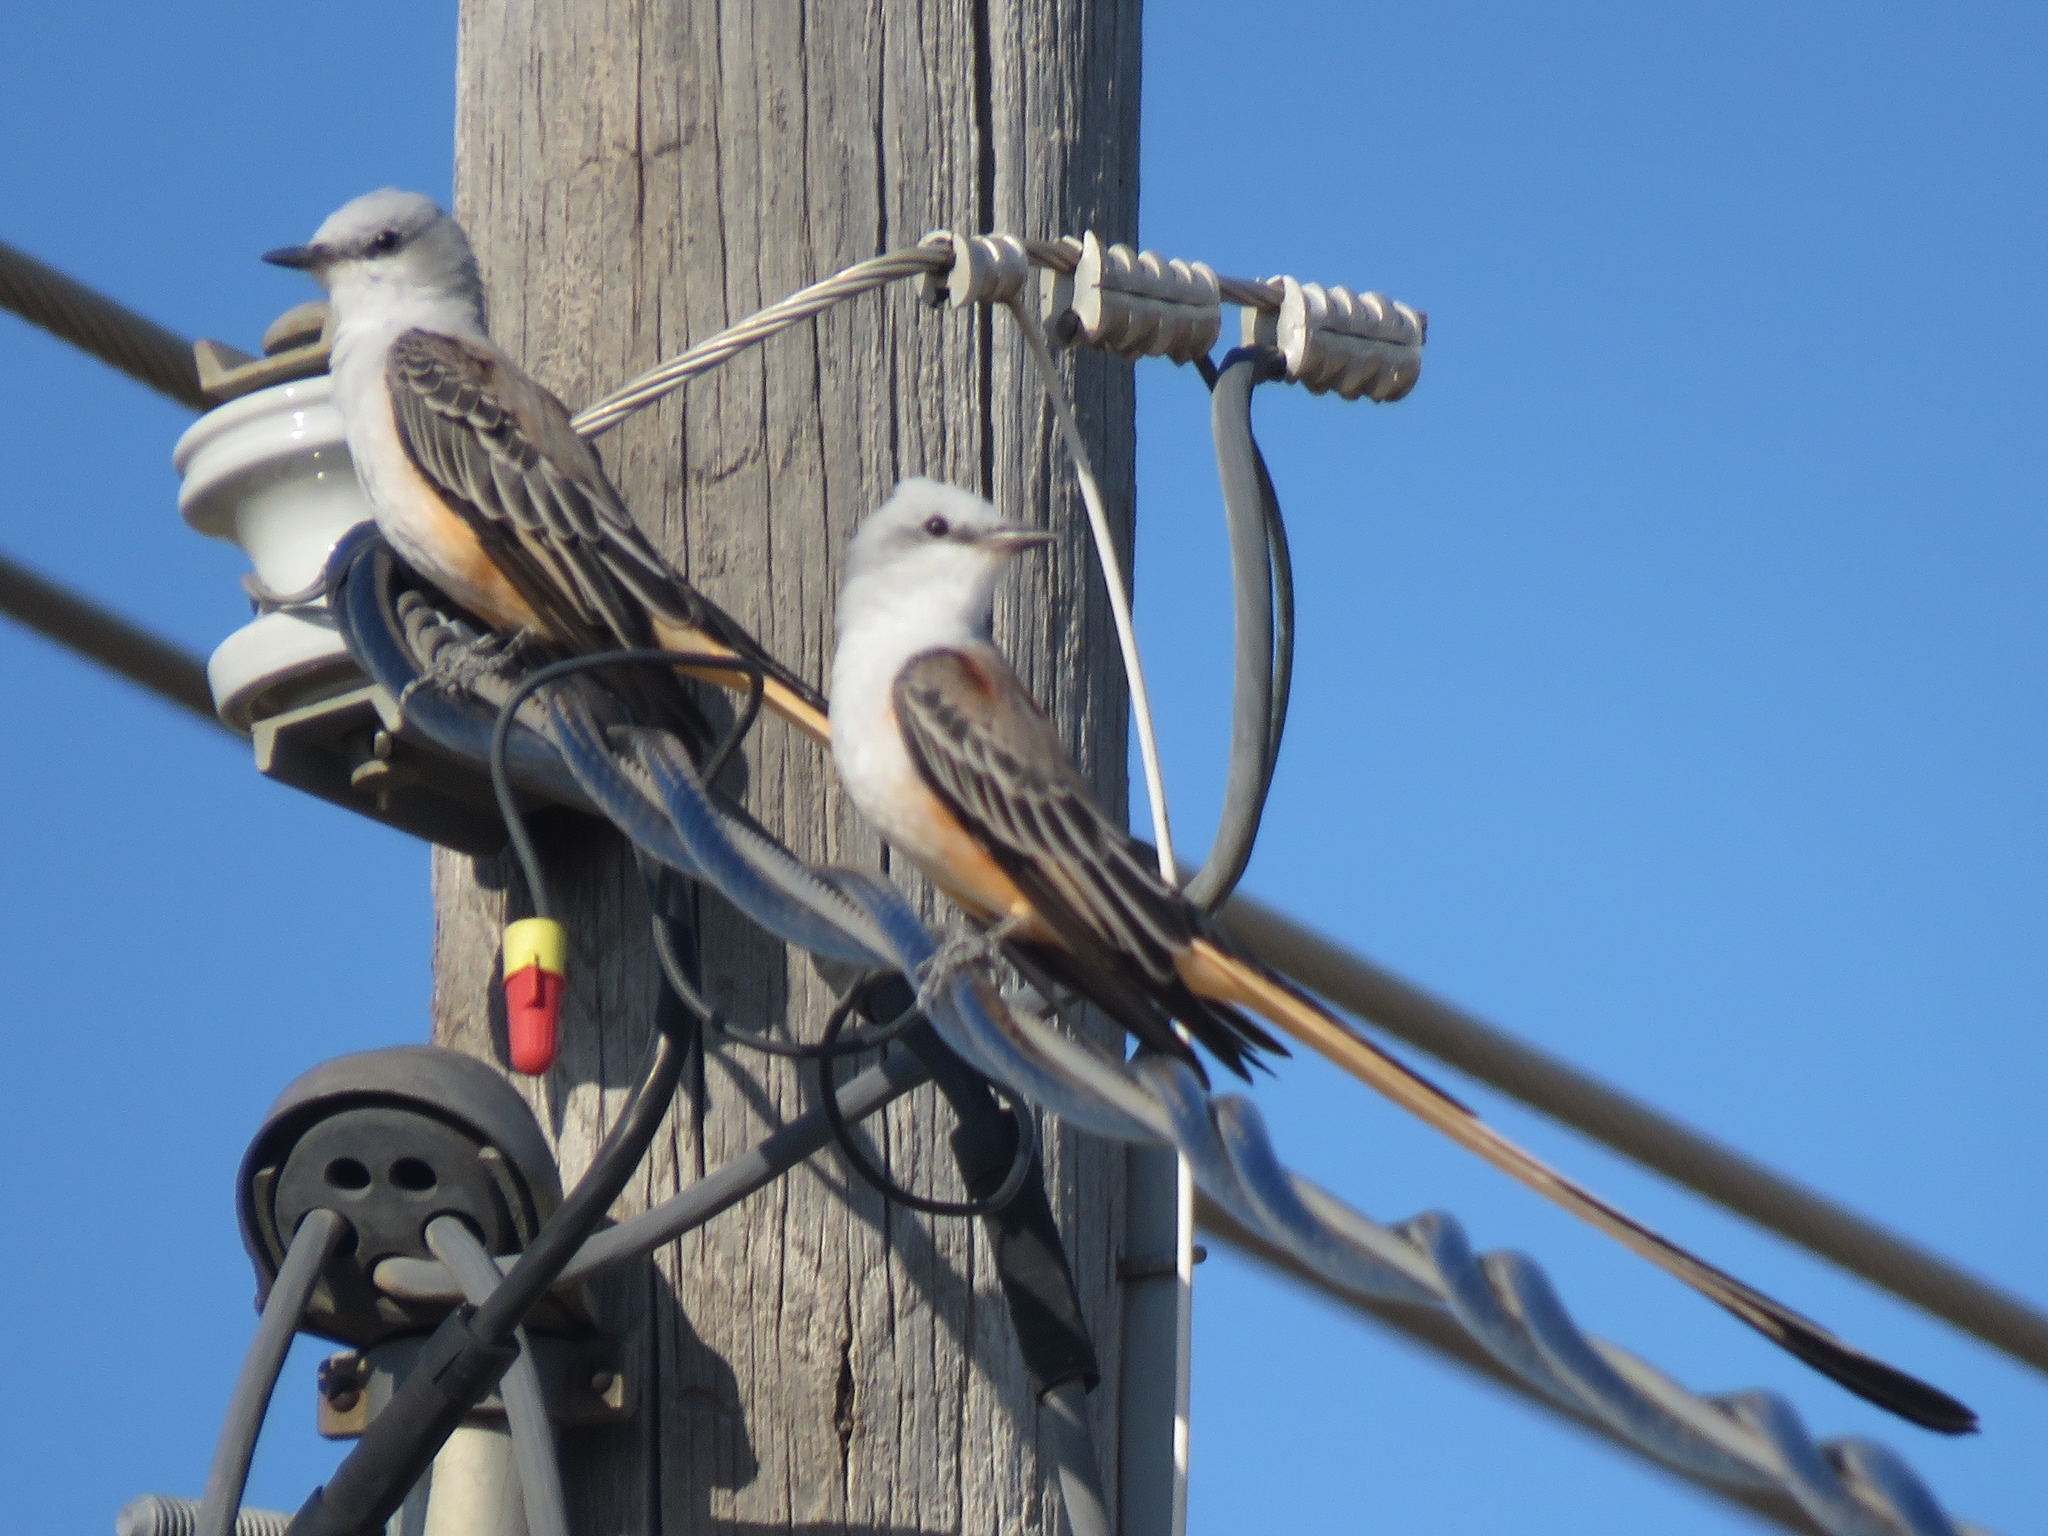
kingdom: Animalia
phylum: Chordata
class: Aves
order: Passeriformes
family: Tyrannidae
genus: Tyrannus
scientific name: Tyrannus forficatus
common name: Scissor-tailed flycatcher
